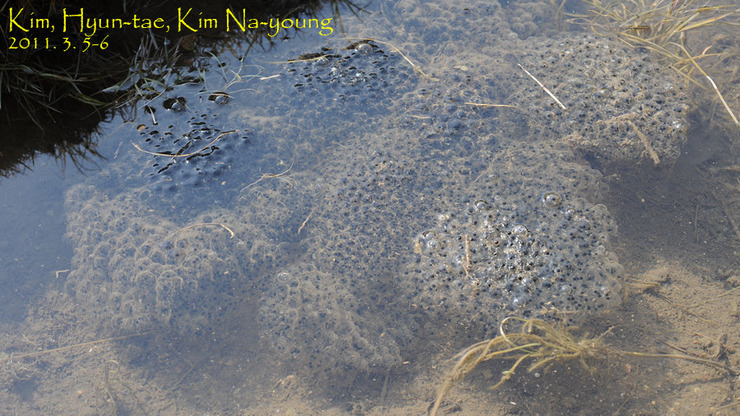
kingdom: Animalia
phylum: Chordata
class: Amphibia
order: Anura
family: Ranidae
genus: Rana
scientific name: Rana uenoi
